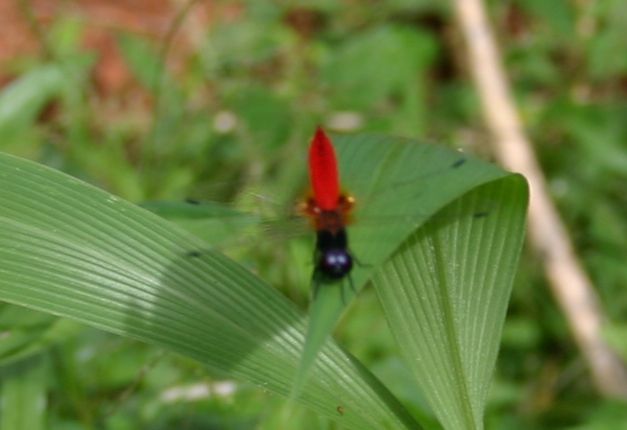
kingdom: Animalia
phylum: Arthropoda
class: Insecta
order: Odonata
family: Libellulidae
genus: Aethriamanta
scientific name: Aethriamanta brevipennis
